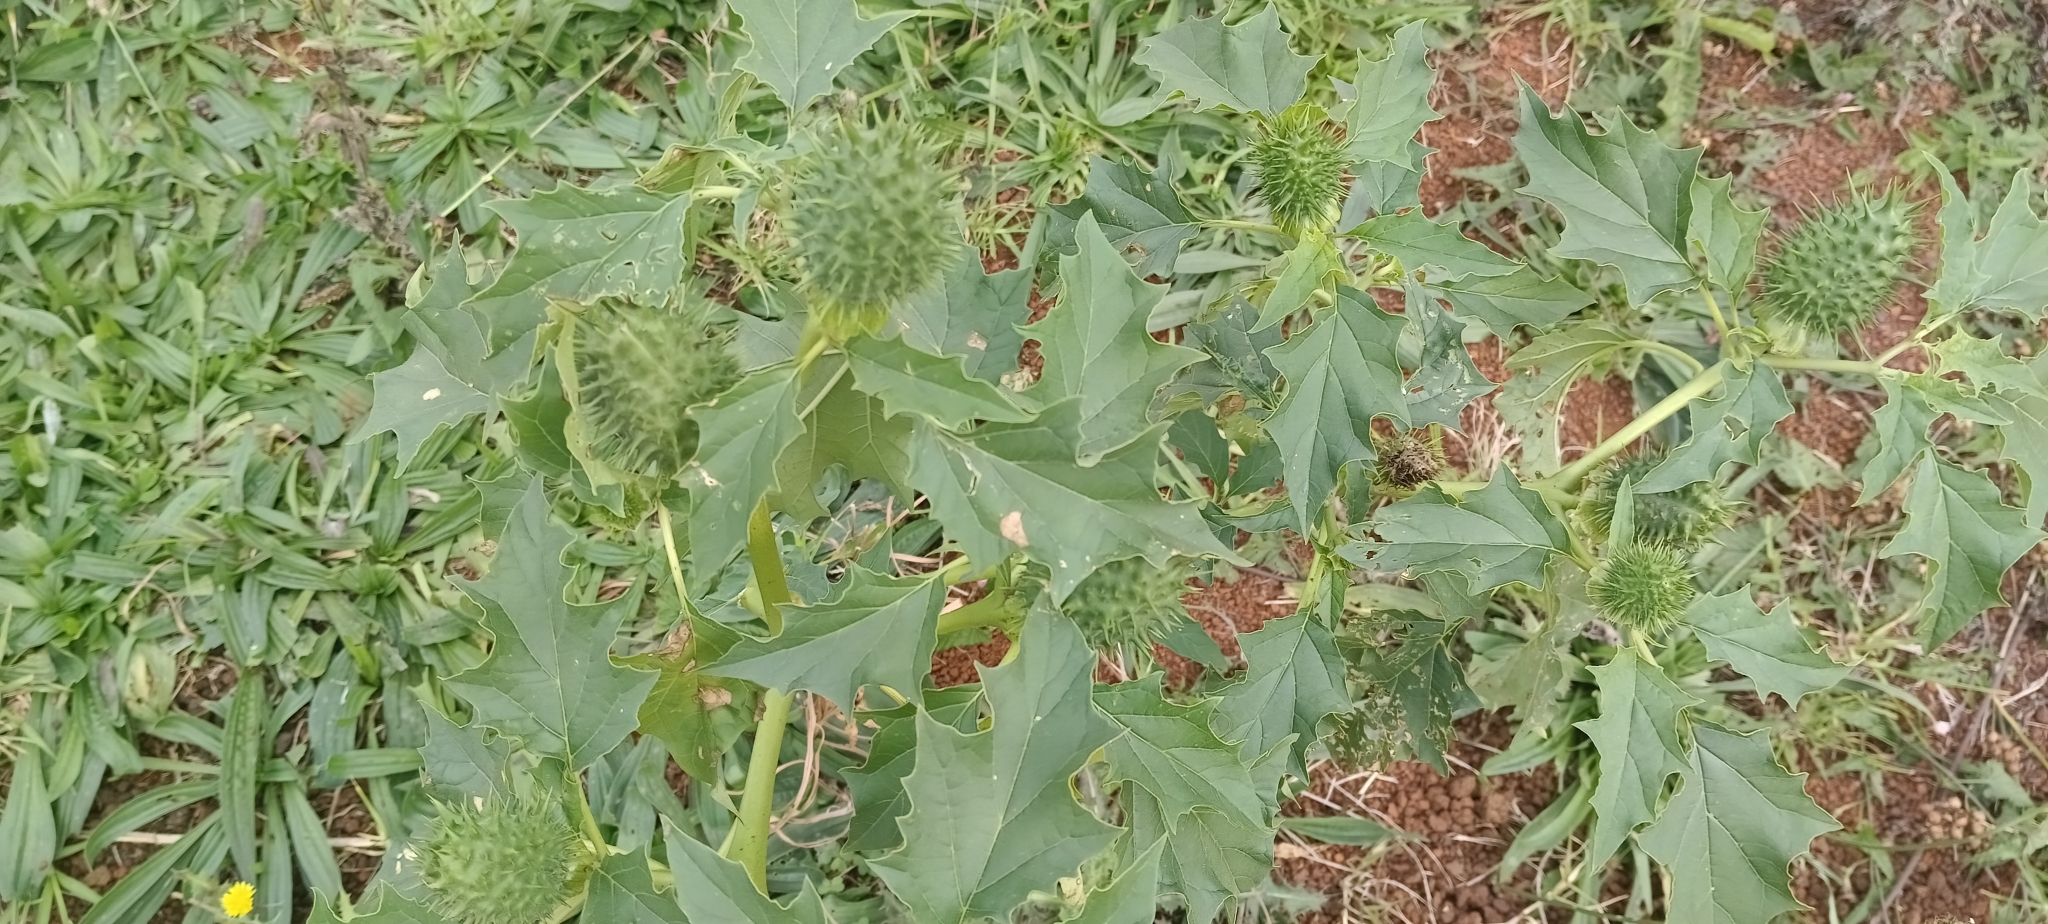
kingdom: Plantae
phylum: Tracheophyta
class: Magnoliopsida
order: Solanales
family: Solanaceae
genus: Datura
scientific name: Datura stramonium
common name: Thorn-apple
